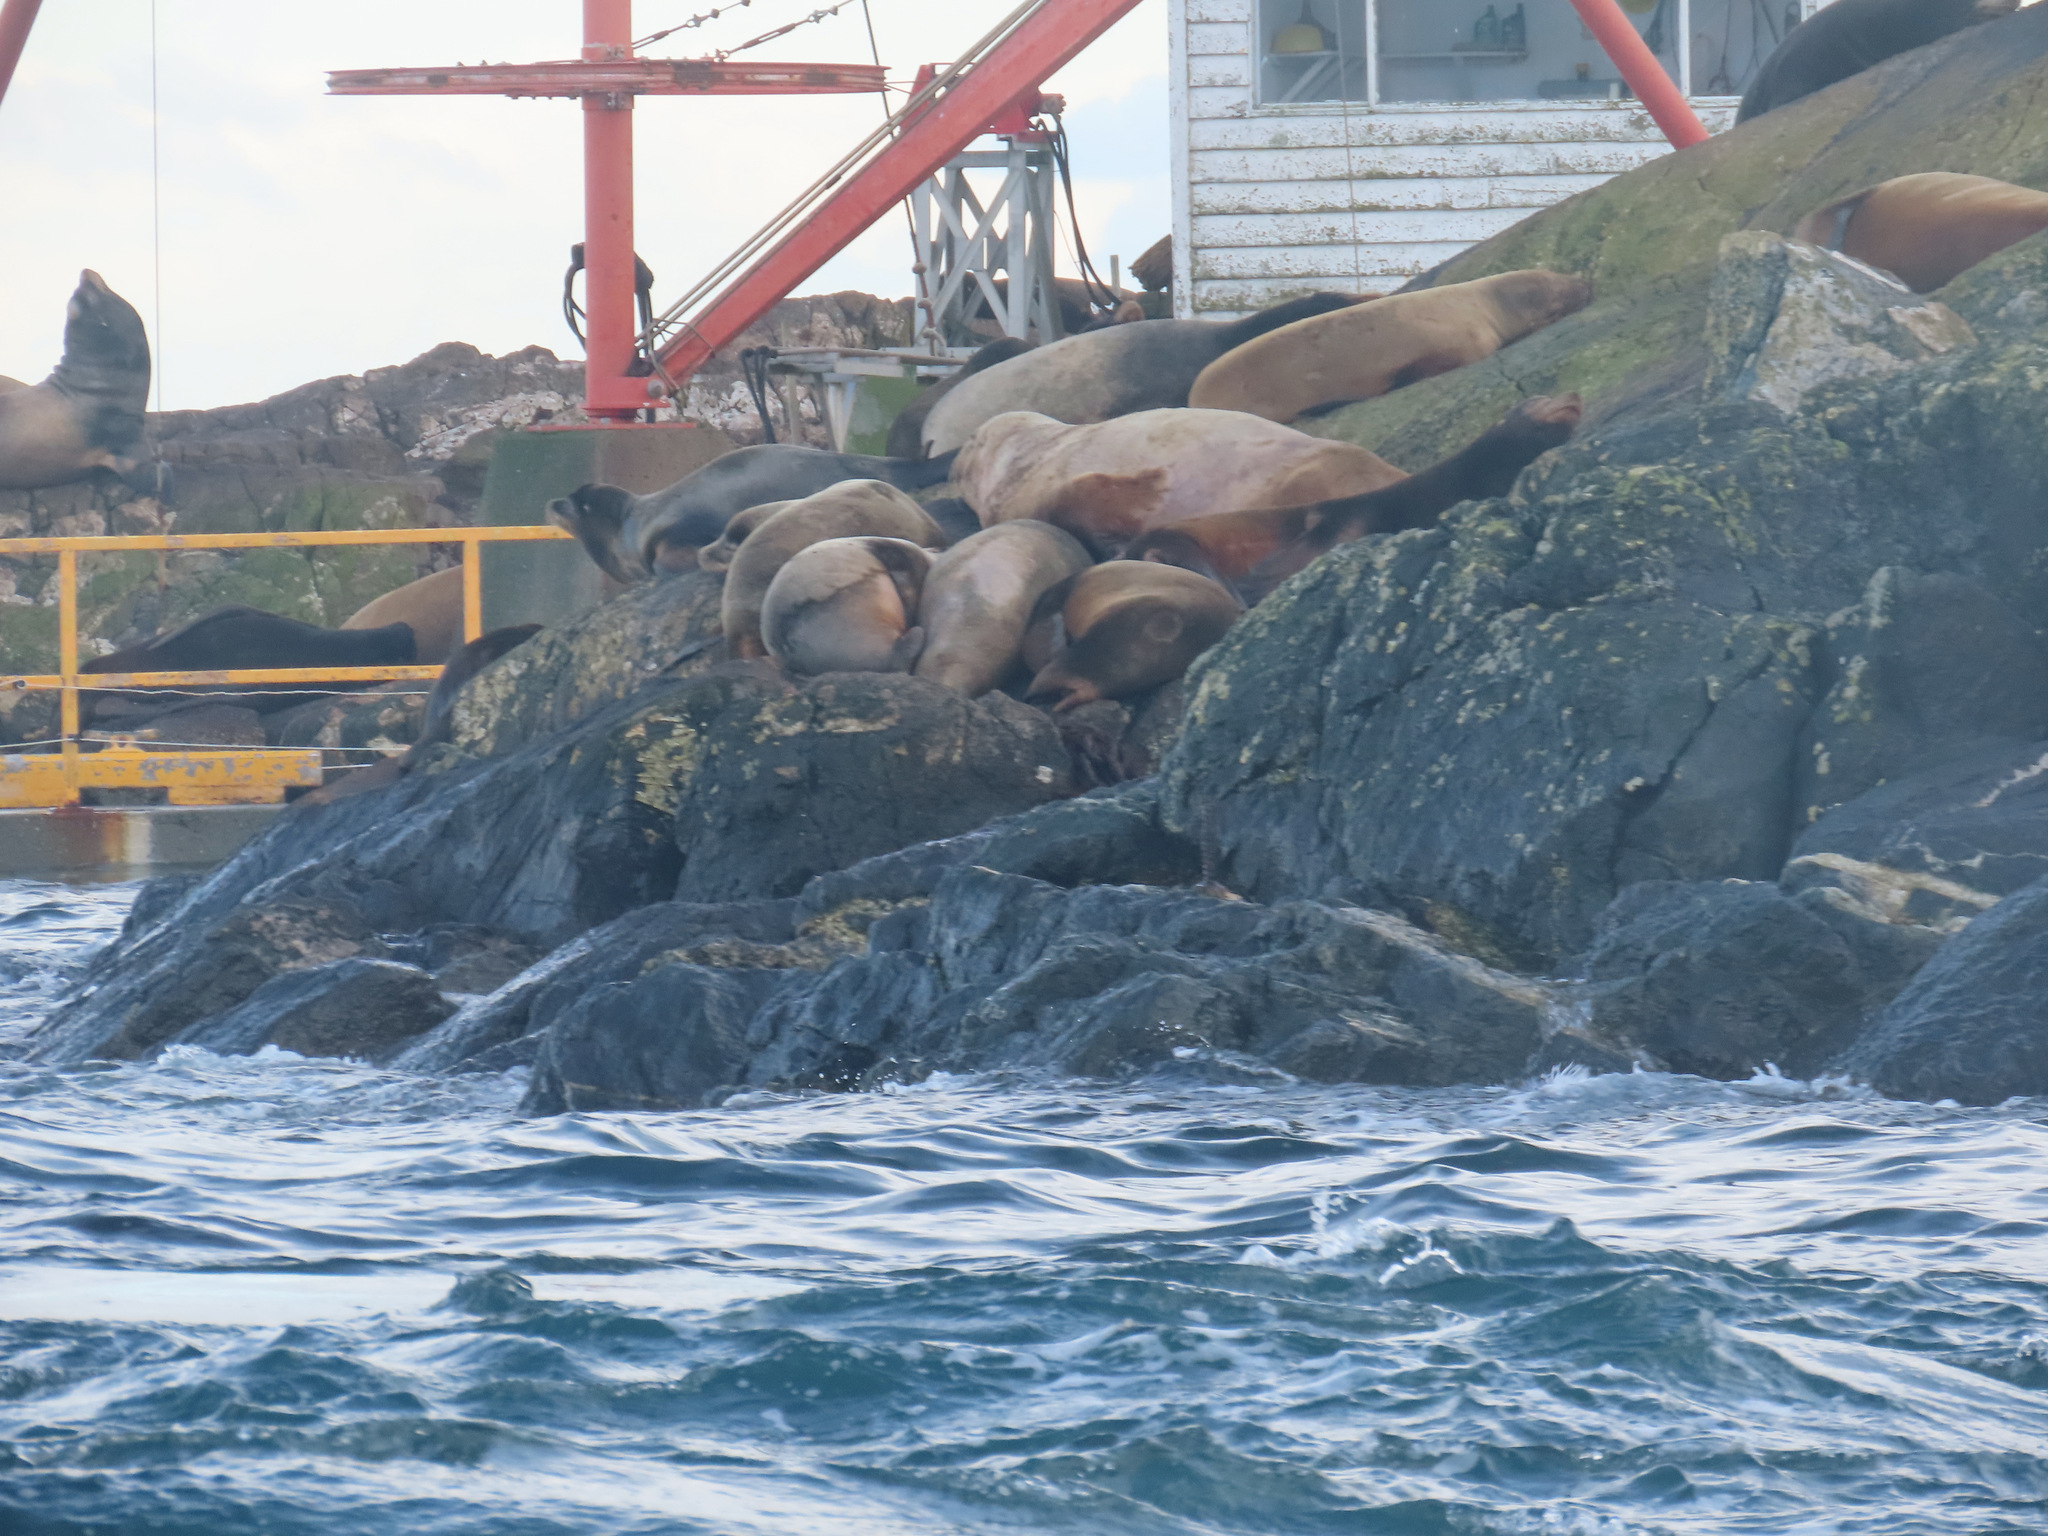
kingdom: Animalia
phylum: Chordata
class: Mammalia
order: Carnivora
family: Otariidae
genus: Zalophus
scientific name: Zalophus californianus
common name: California sea lion
